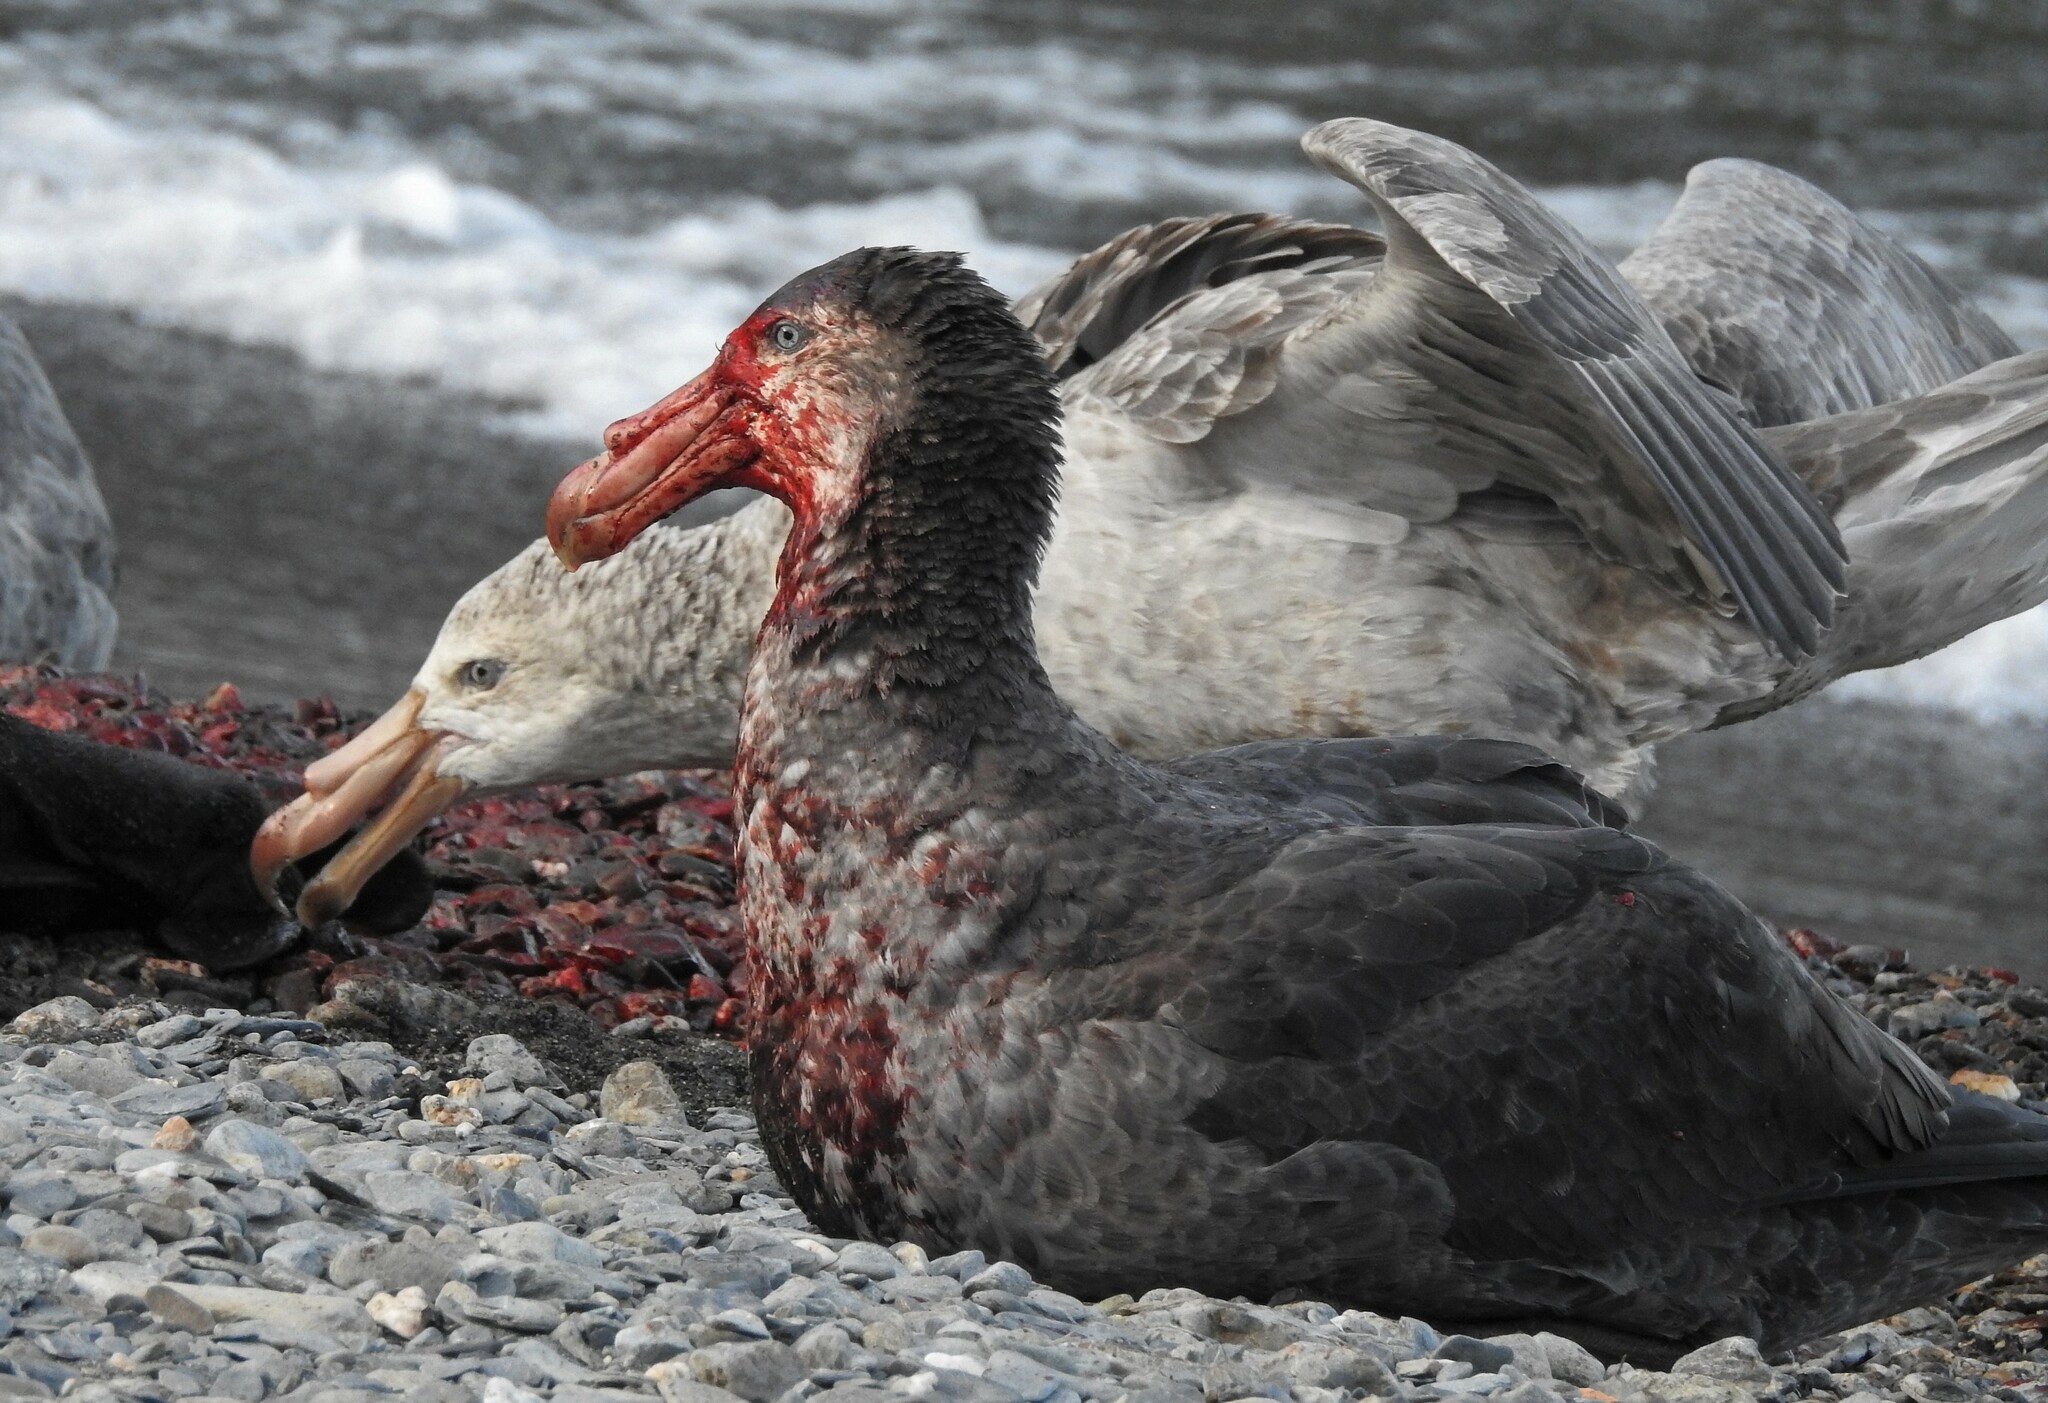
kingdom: Animalia
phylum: Chordata
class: Aves
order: Procellariiformes
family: Procellariidae
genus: Macronectes
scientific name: Macronectes halli
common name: Northern giant petrel
